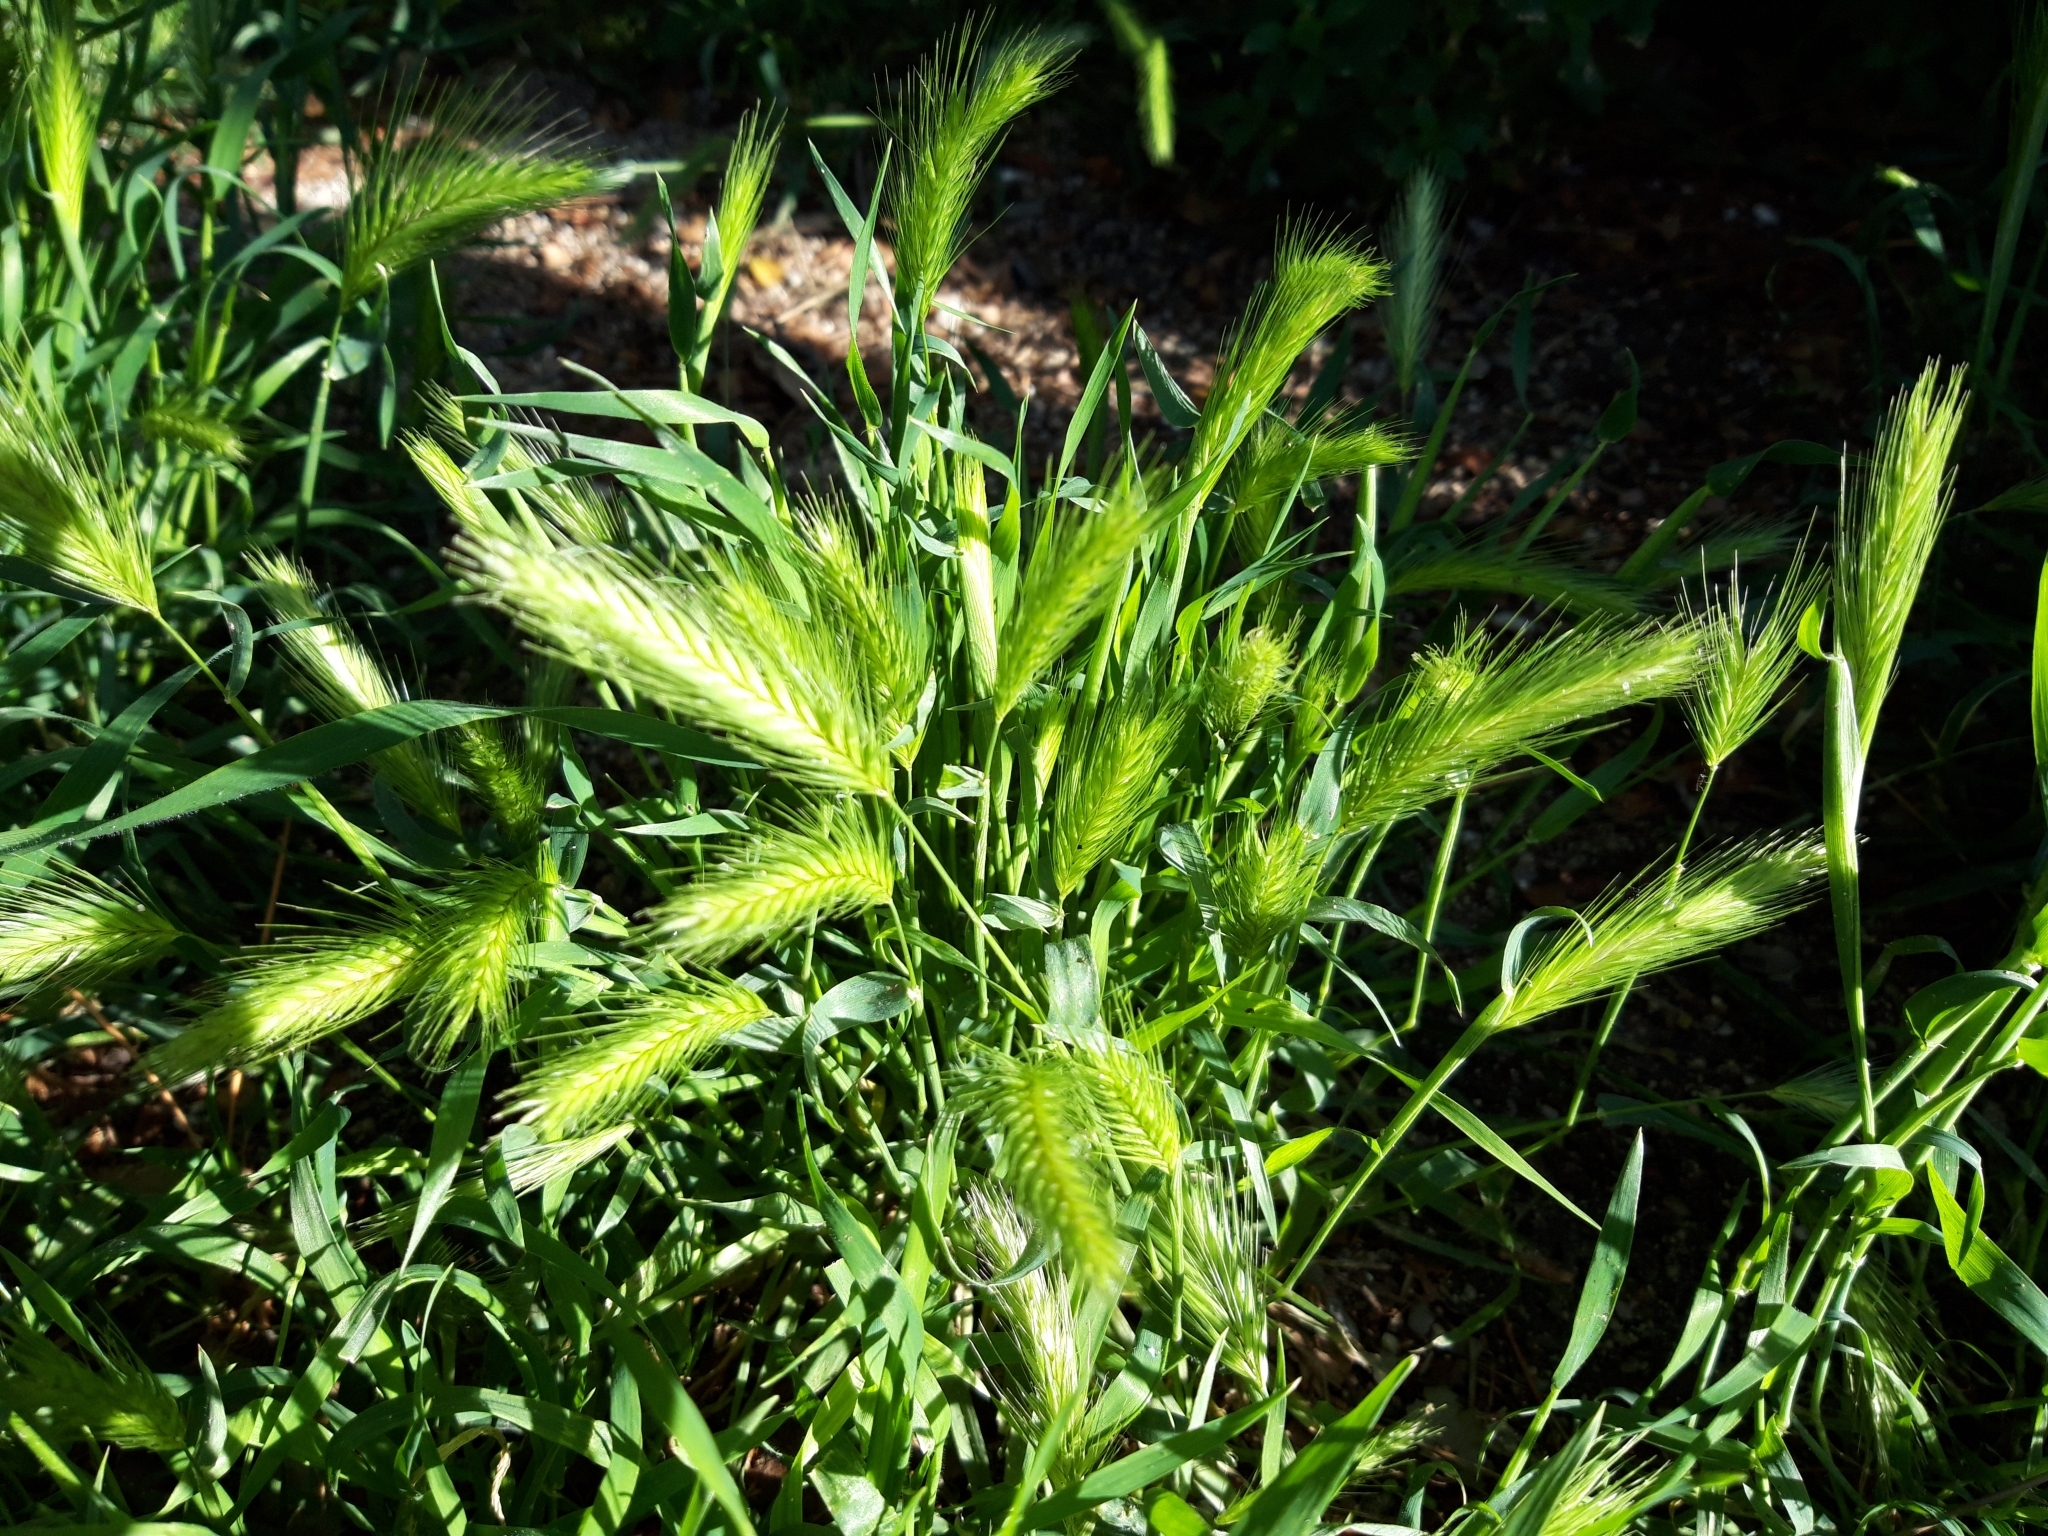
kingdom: Plantae
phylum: Tracheophyta
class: Liliopsida
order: Poales
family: Poaceae
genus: Hordeum
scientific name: Hordeum murinum
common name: Wall barley
